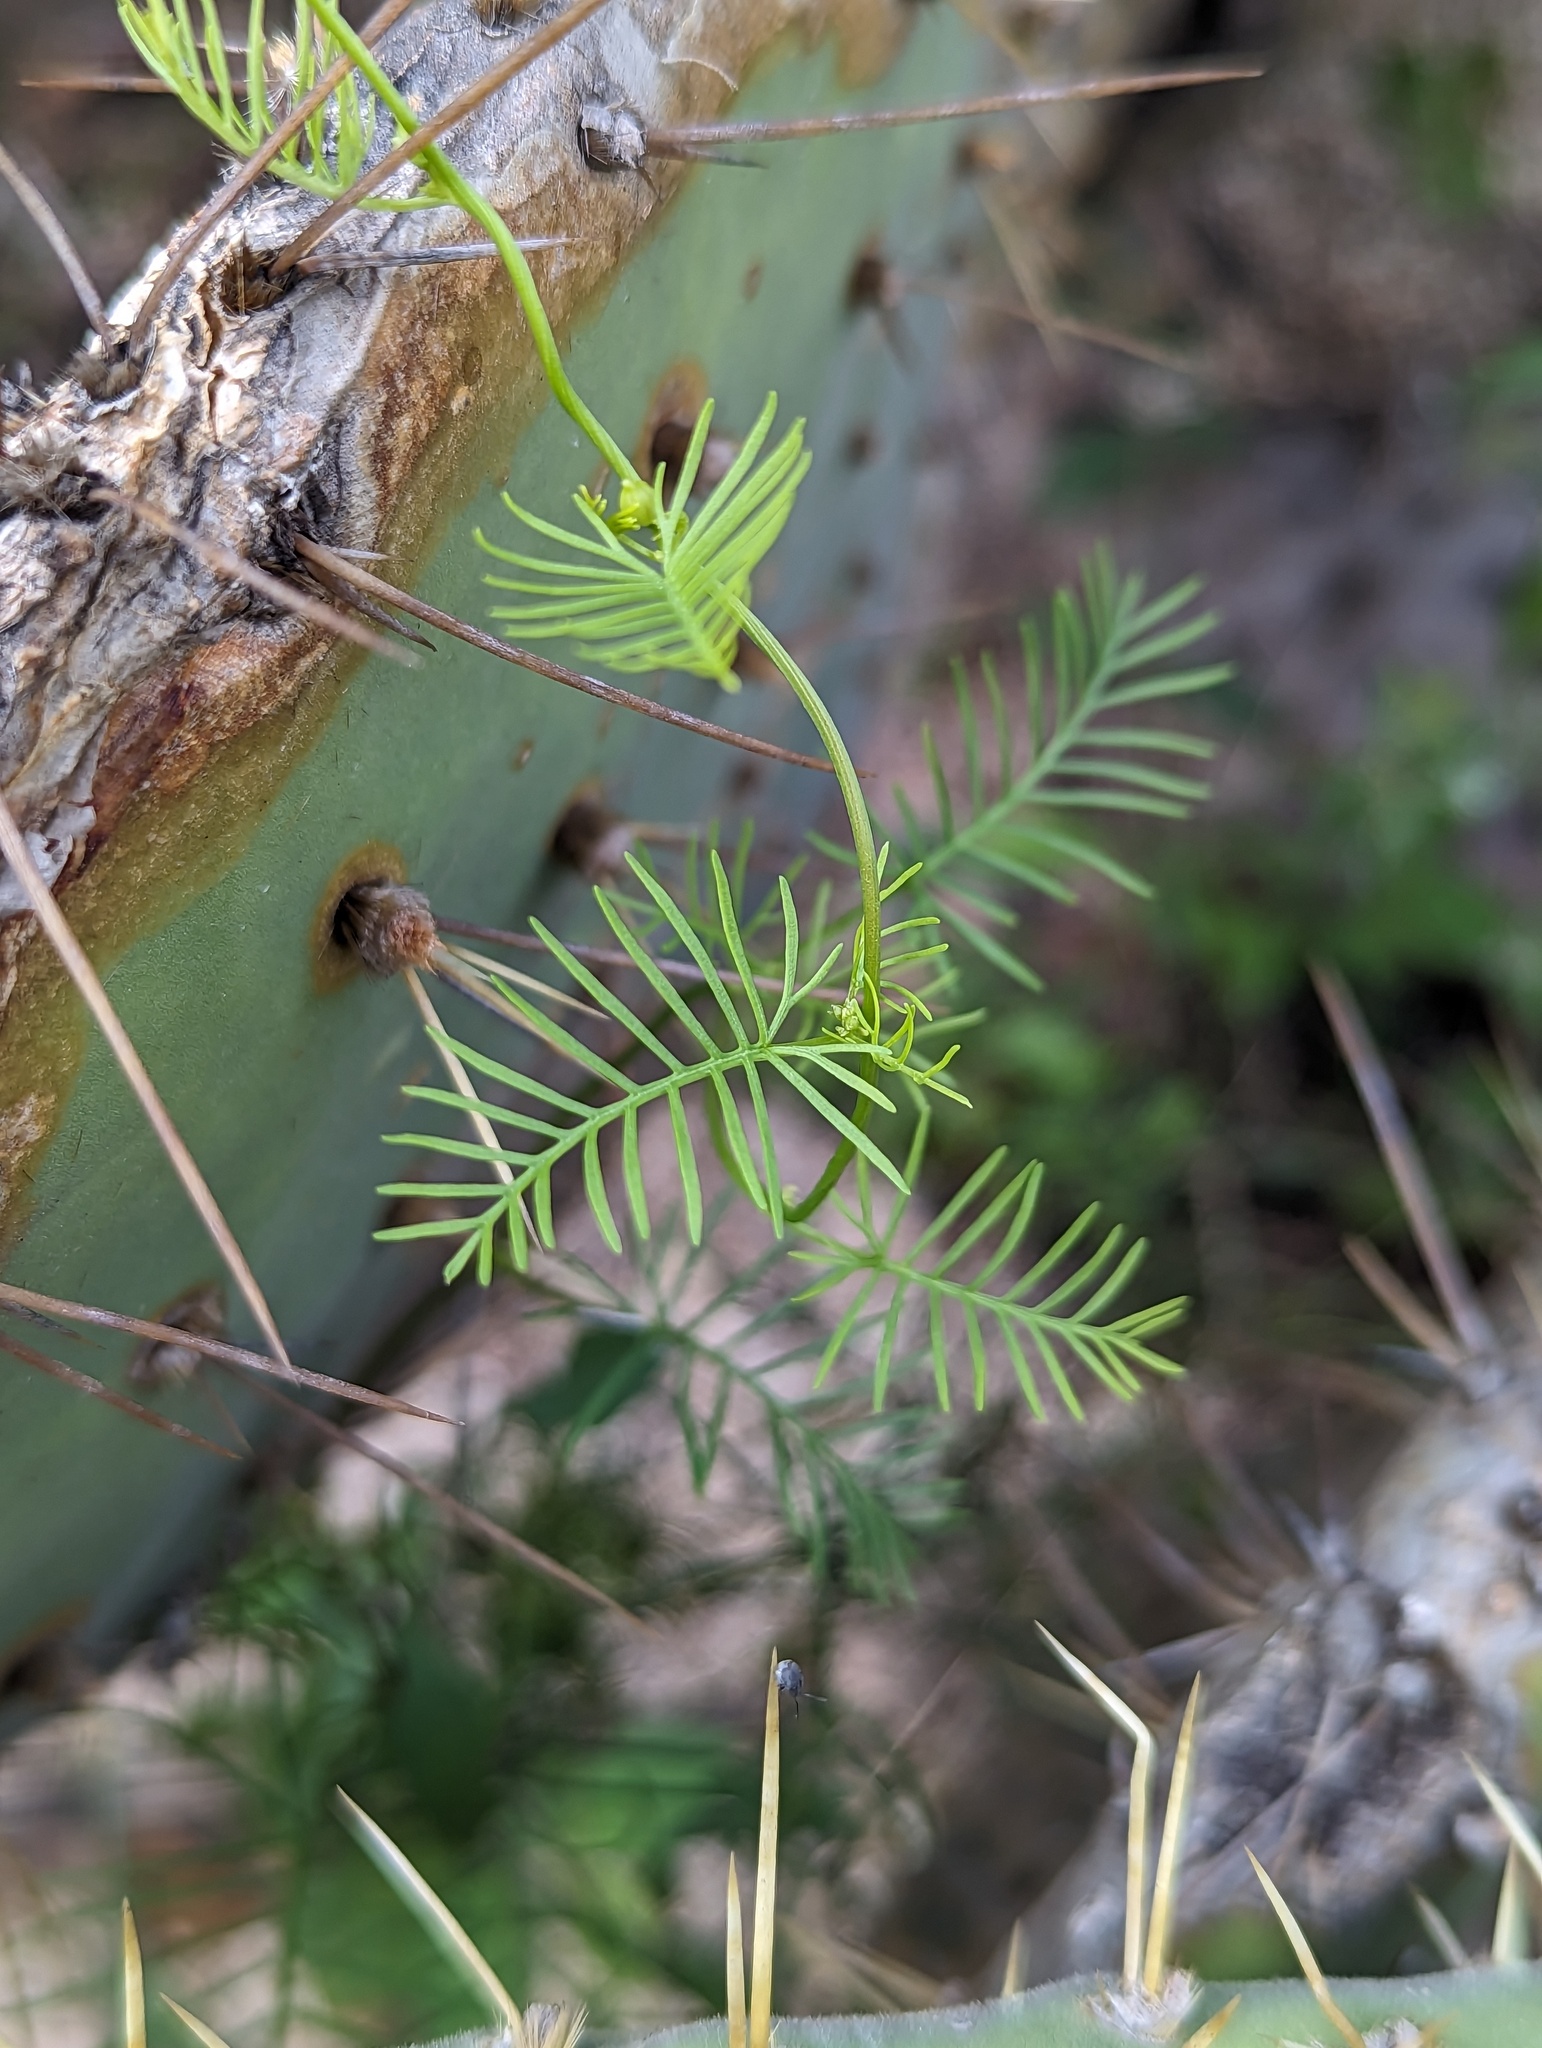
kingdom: Plantae
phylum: Tracheophyta
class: Magnoliopsida
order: Solanales
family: Convolvulaceae
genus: Ipomoea
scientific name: Ipomoea quamoclit
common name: Cypress vine
